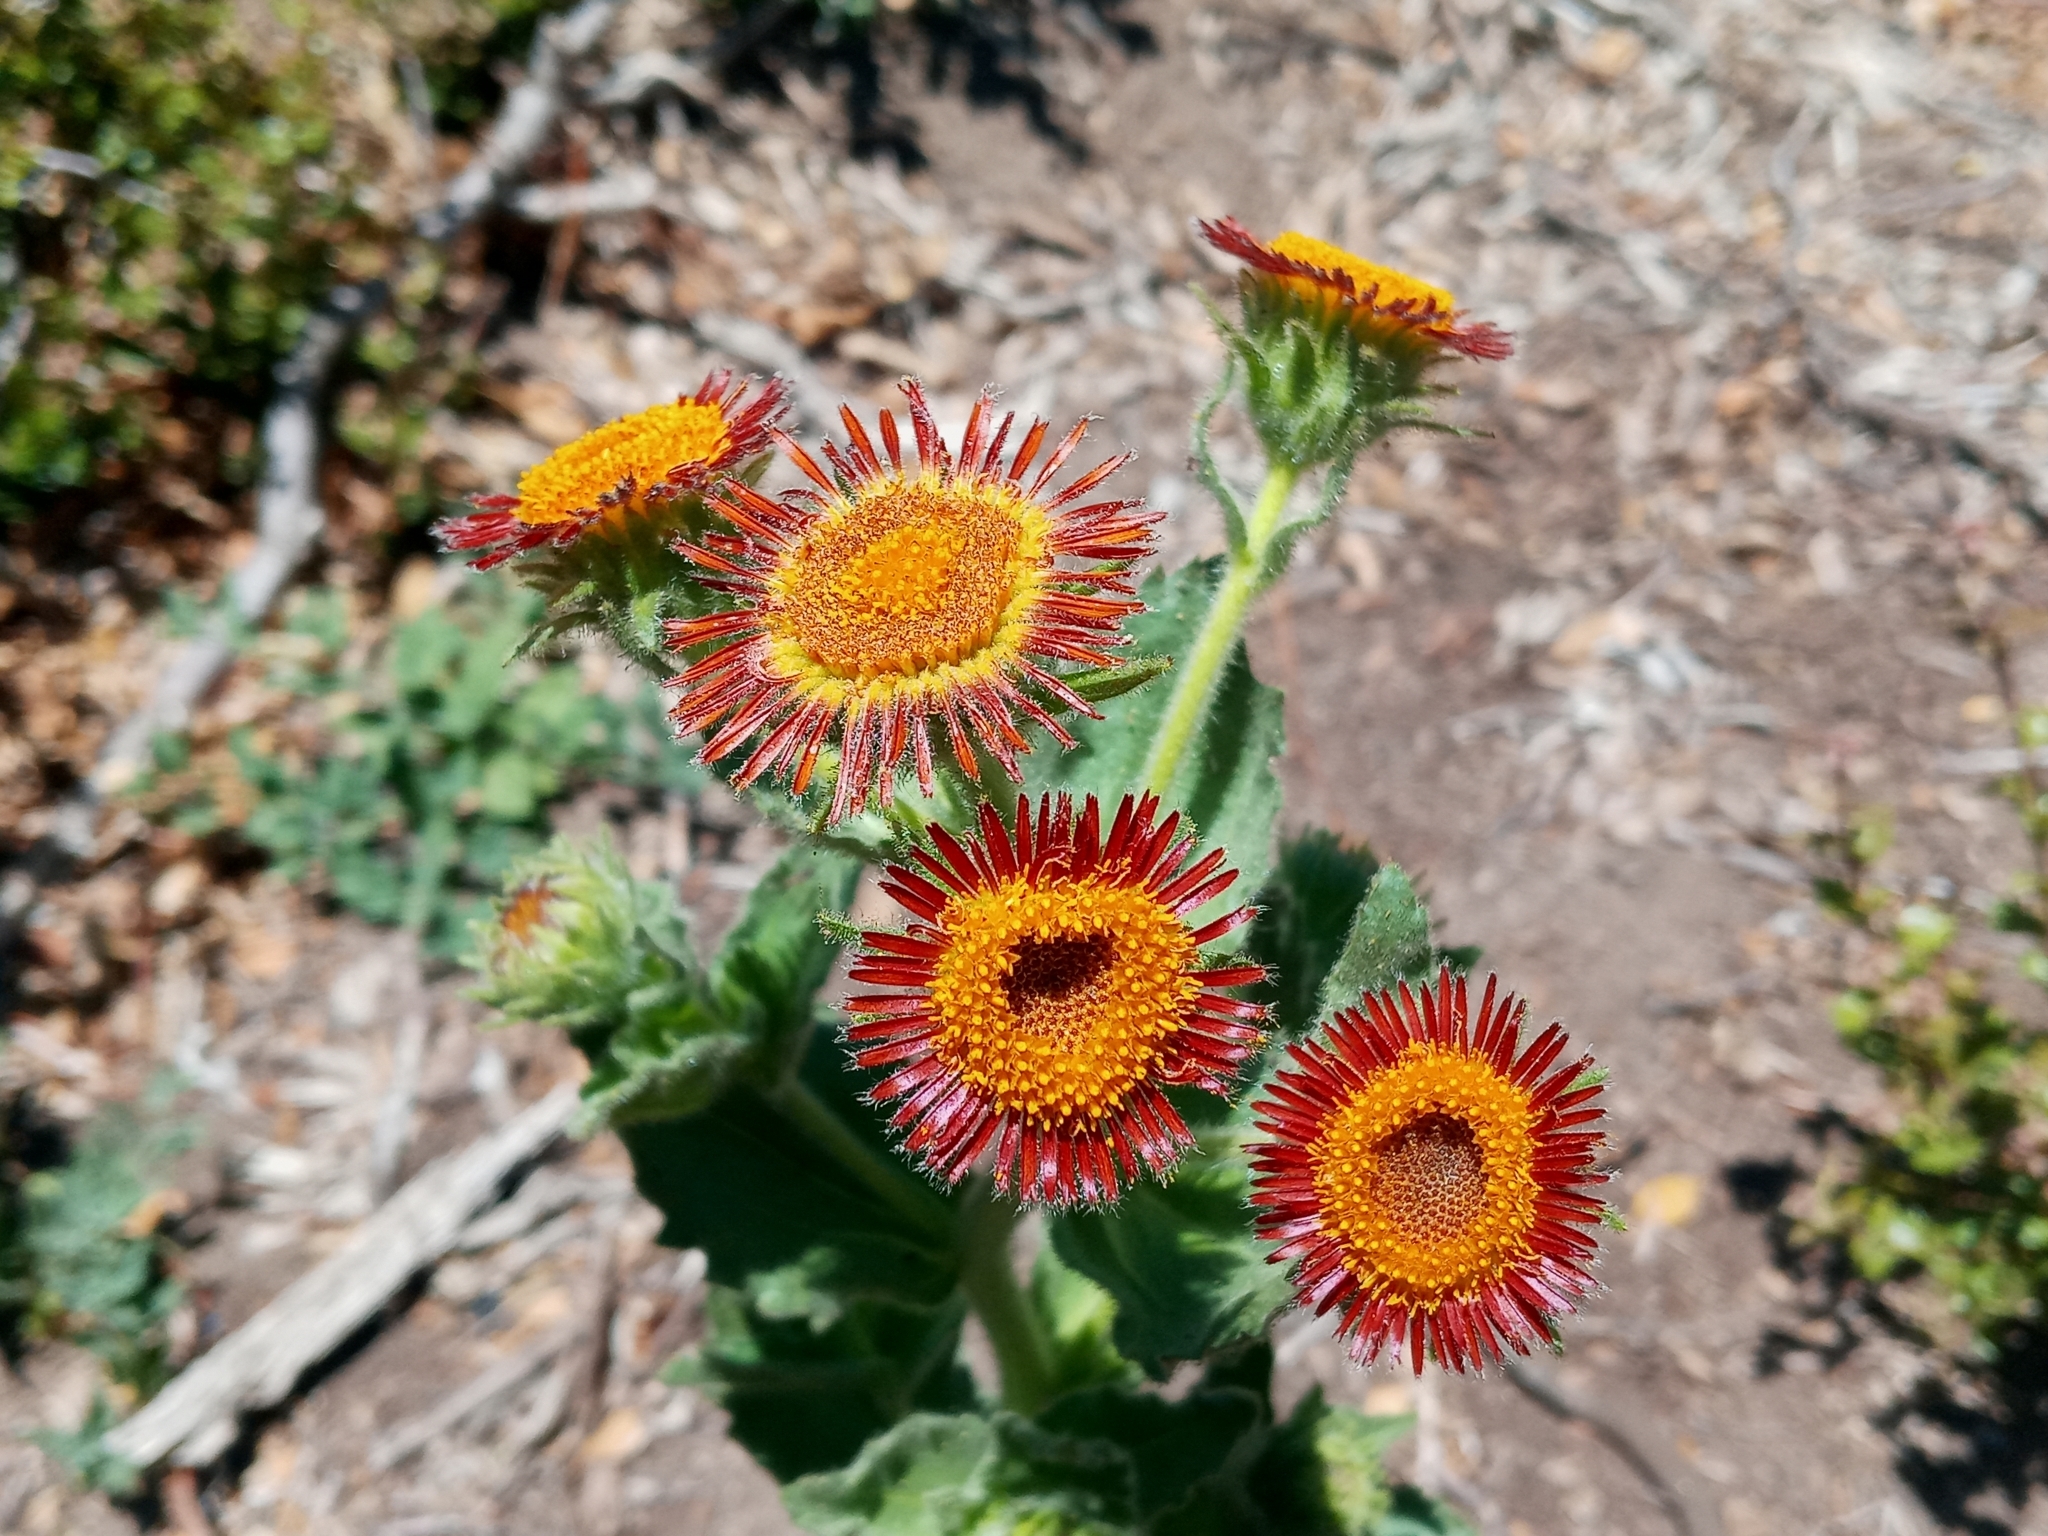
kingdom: Plantae
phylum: Tracheophyta
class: Magnoliopsida
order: Asterales
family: Asteraceae
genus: Hulsea
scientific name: Hulsea heterochroma
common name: Redray alpinegold
